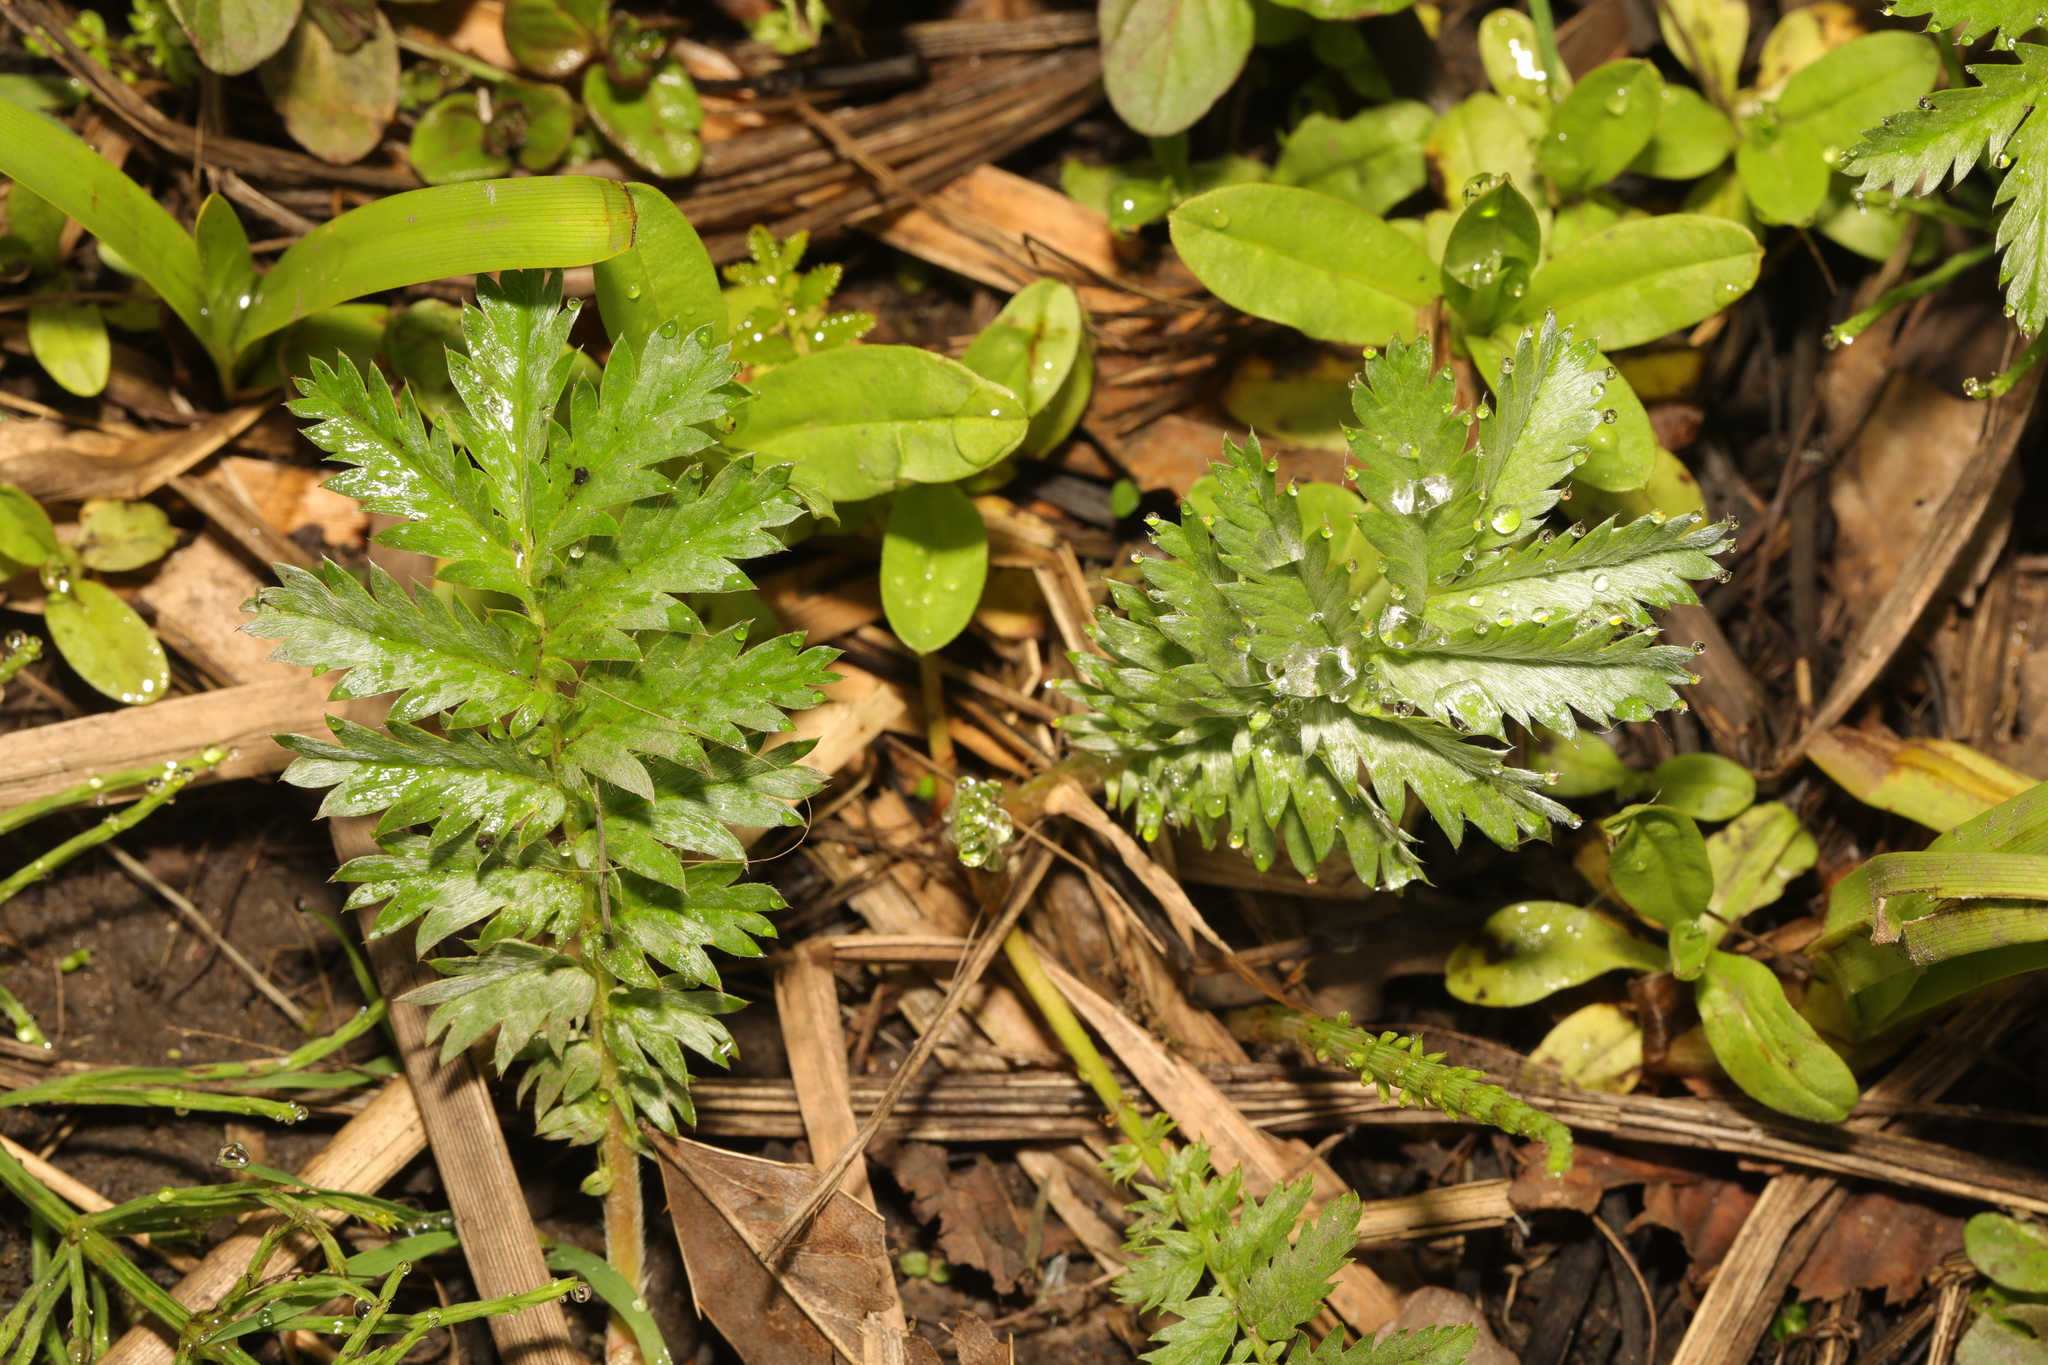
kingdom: Plantae
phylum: Tracheophyta
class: Magnoliopsida
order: Rosales
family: Rosaceae
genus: Argentina
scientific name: Argentina anserina
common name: Common silverweed
